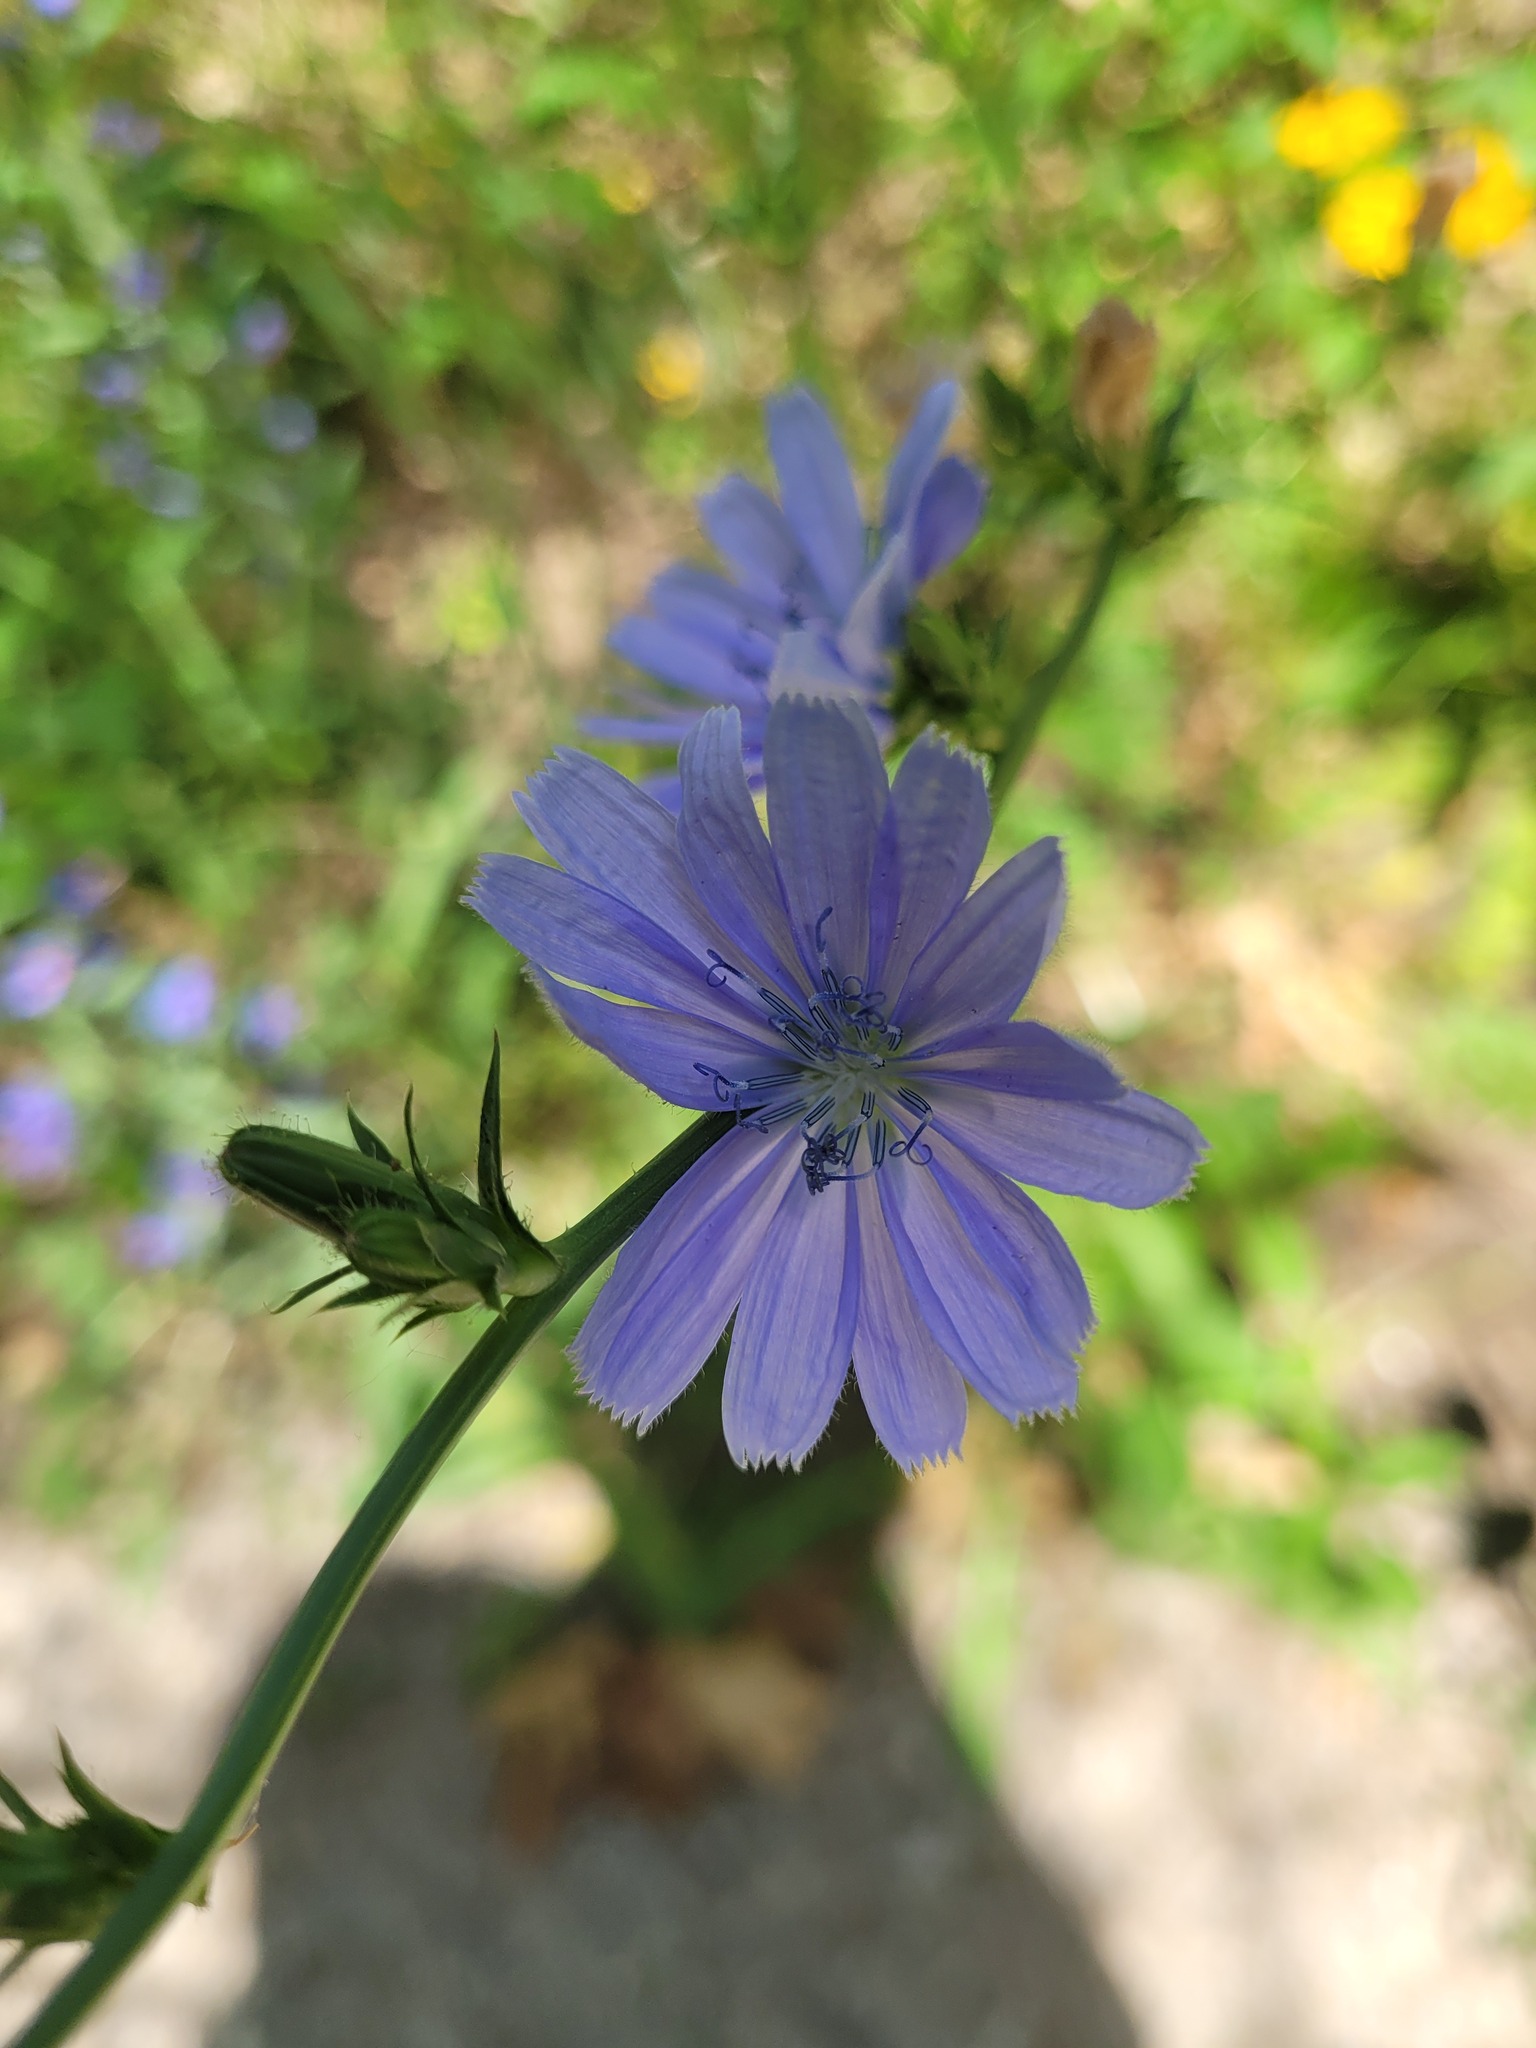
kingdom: Plantae
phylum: Tracheophyta
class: Magnoliopsida
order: Asterales
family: Asteraceae
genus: Cichorium
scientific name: Cichorium intybus
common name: Chicory
